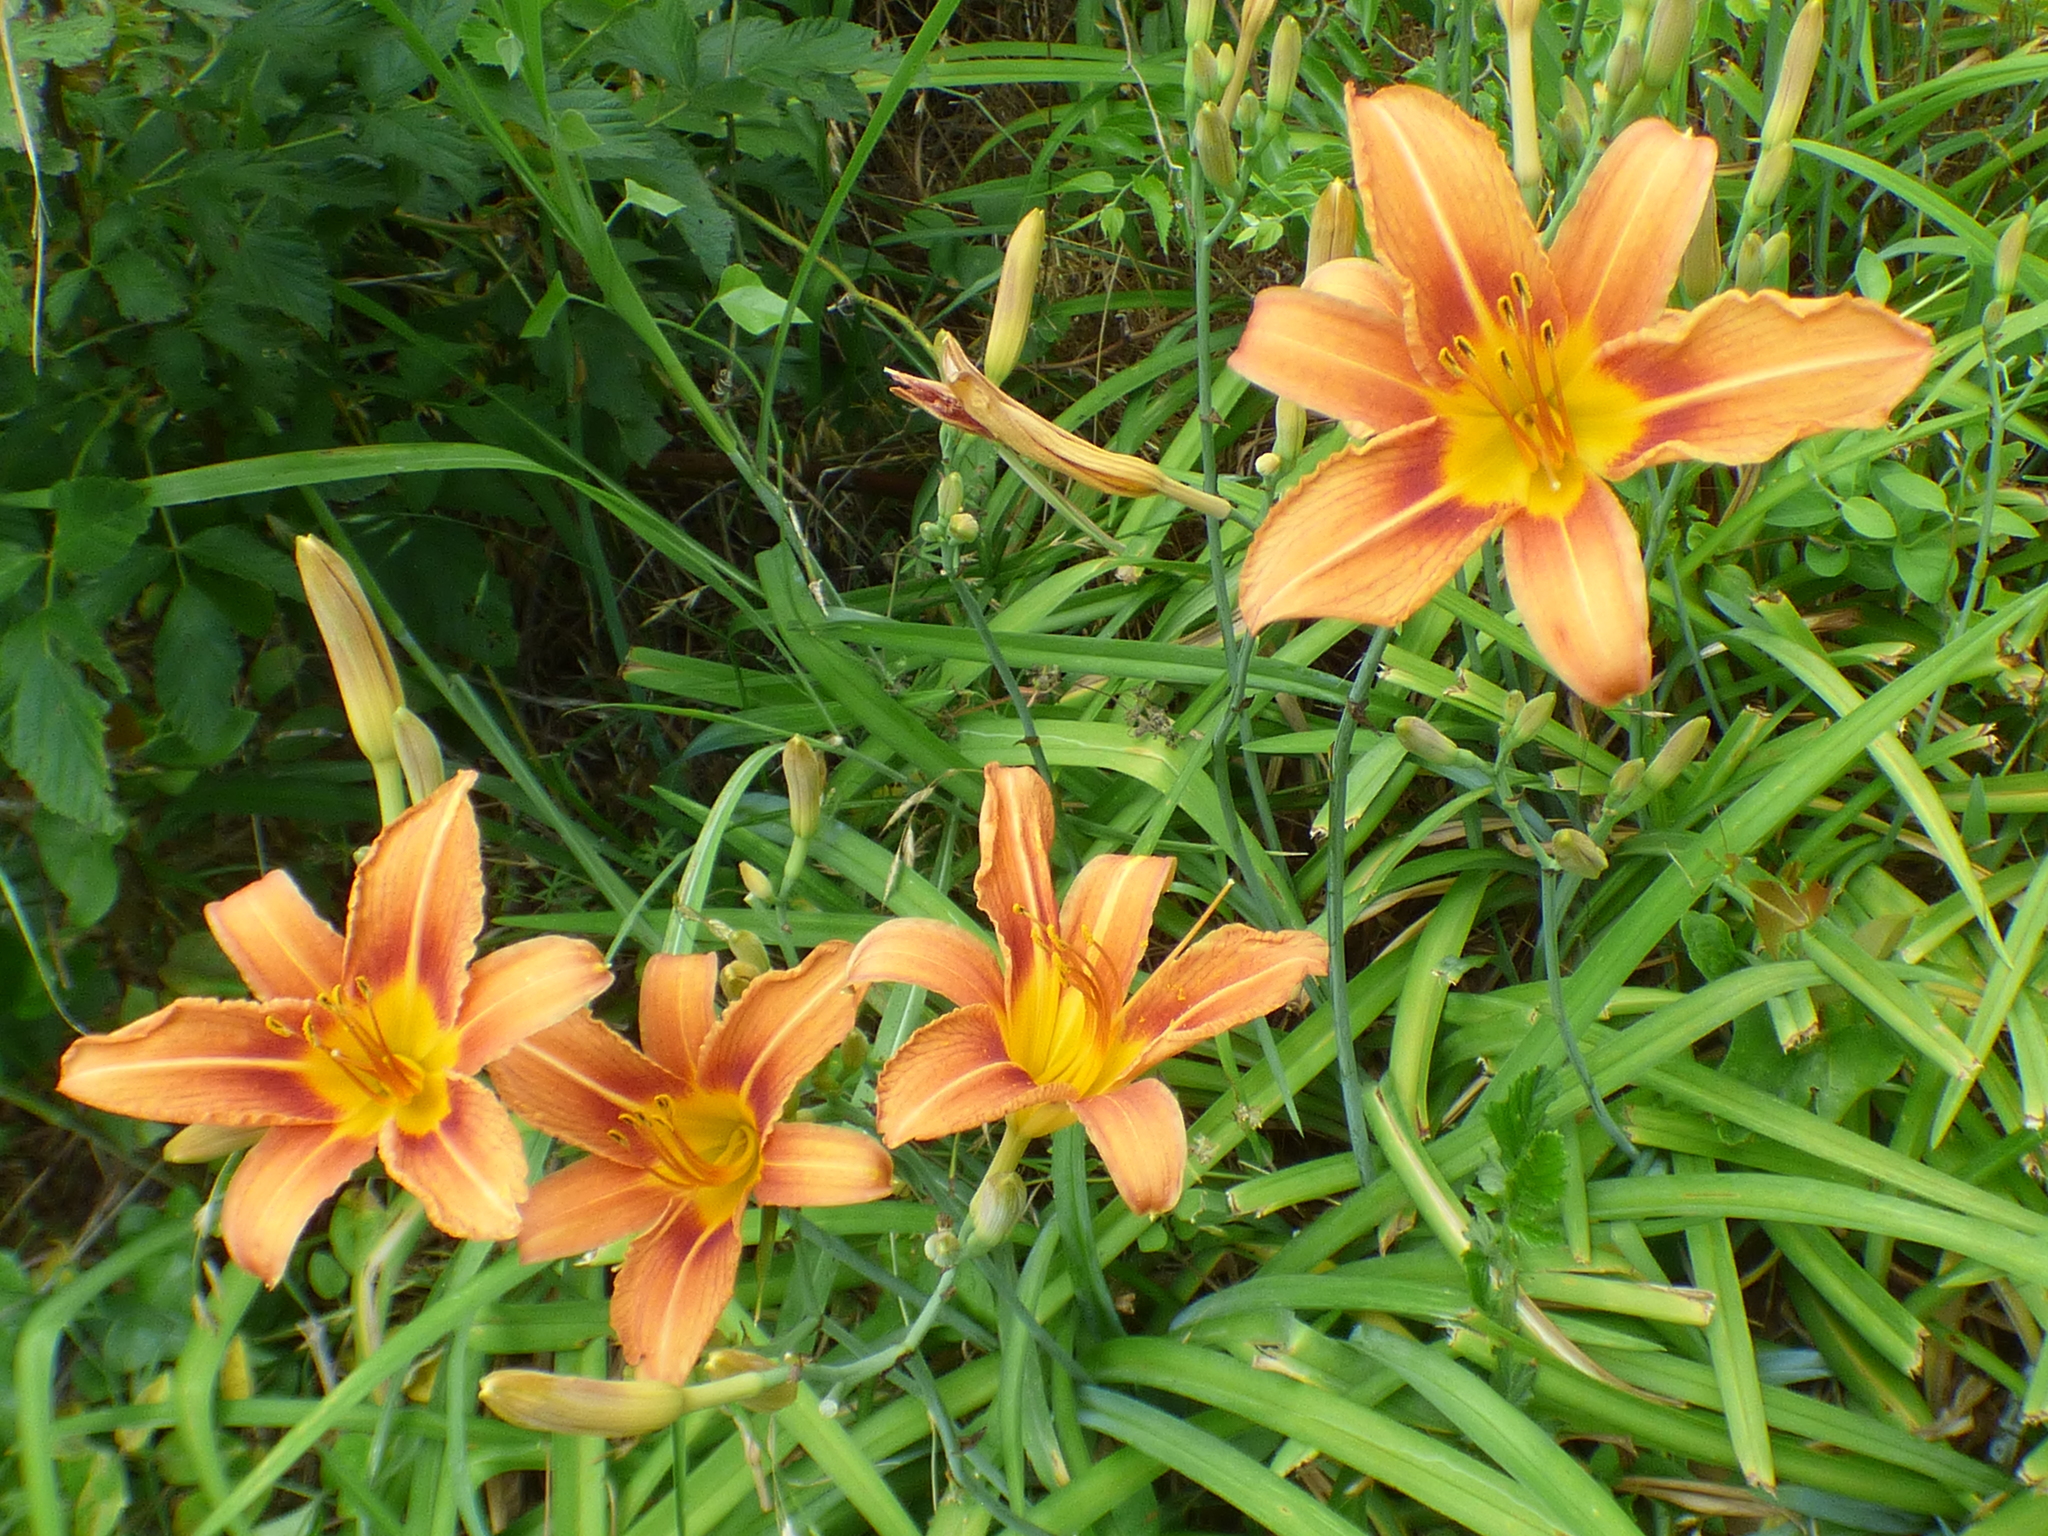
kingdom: Plantae
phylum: Tracheophyta
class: Liliopsida
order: Asparagales
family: Asphodelaceae
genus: Hemerocallis
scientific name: Hemerocallis fulva
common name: Orange day-lily
